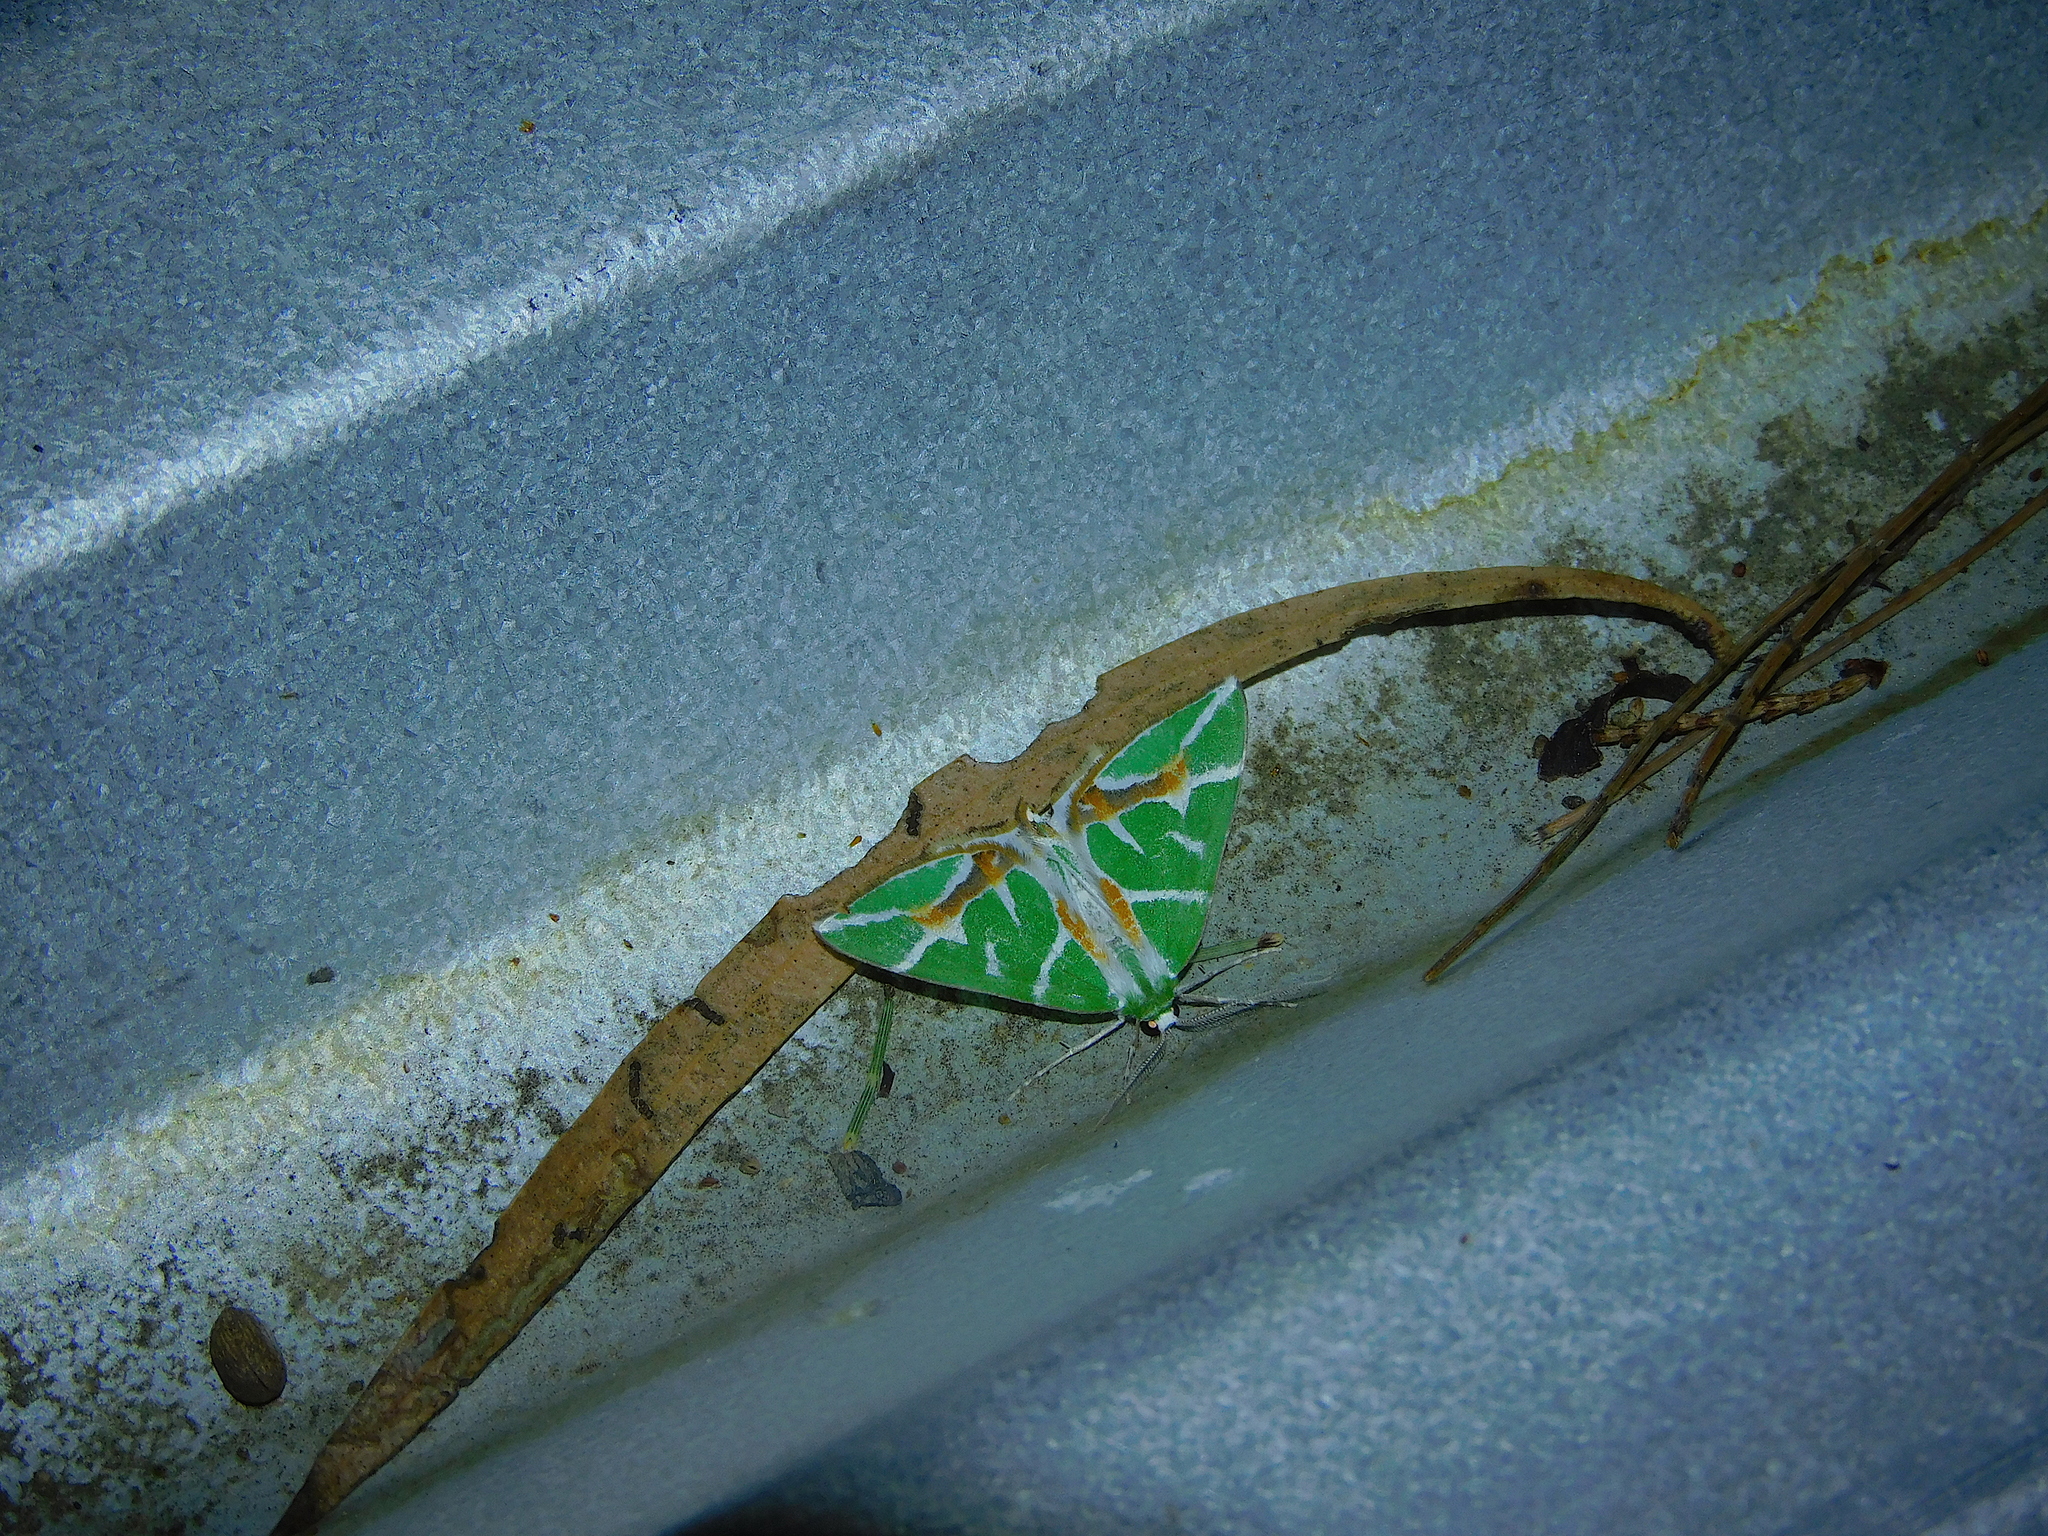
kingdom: Animalia
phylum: Arthropoda
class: Insecta
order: Lepidoptera
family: Geometridae
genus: Chlorodes
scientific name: Chlorodes boisduvalaria
